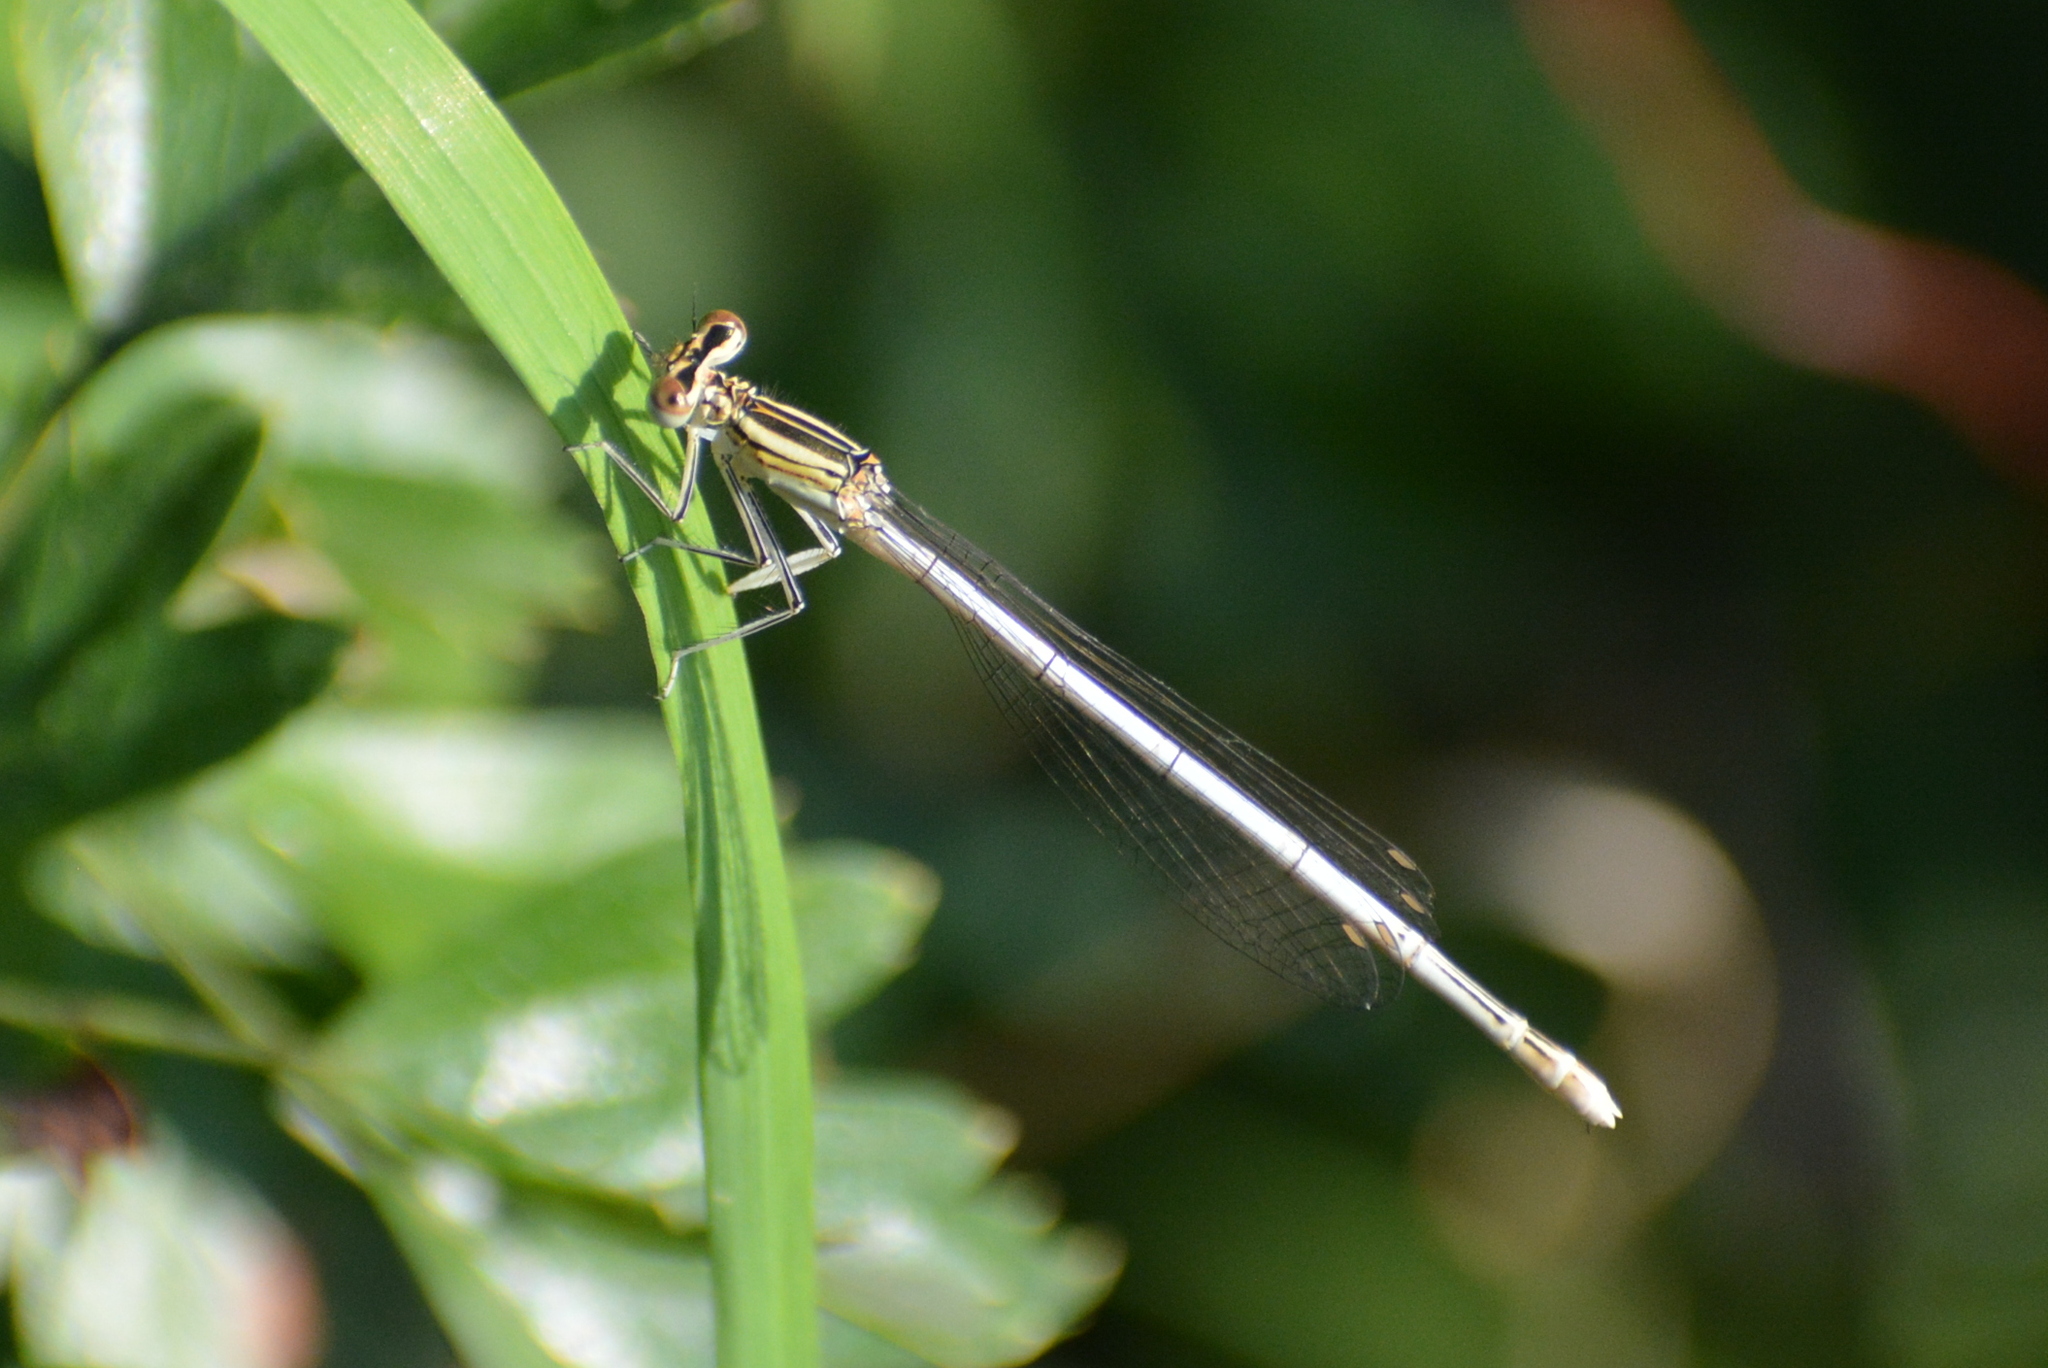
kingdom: Animalia
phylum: Arthropoda
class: Insecta
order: Odonata
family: Platycnemididae
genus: Platycnemis
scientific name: Platycnemis pennipes
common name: White-legged damselfly
